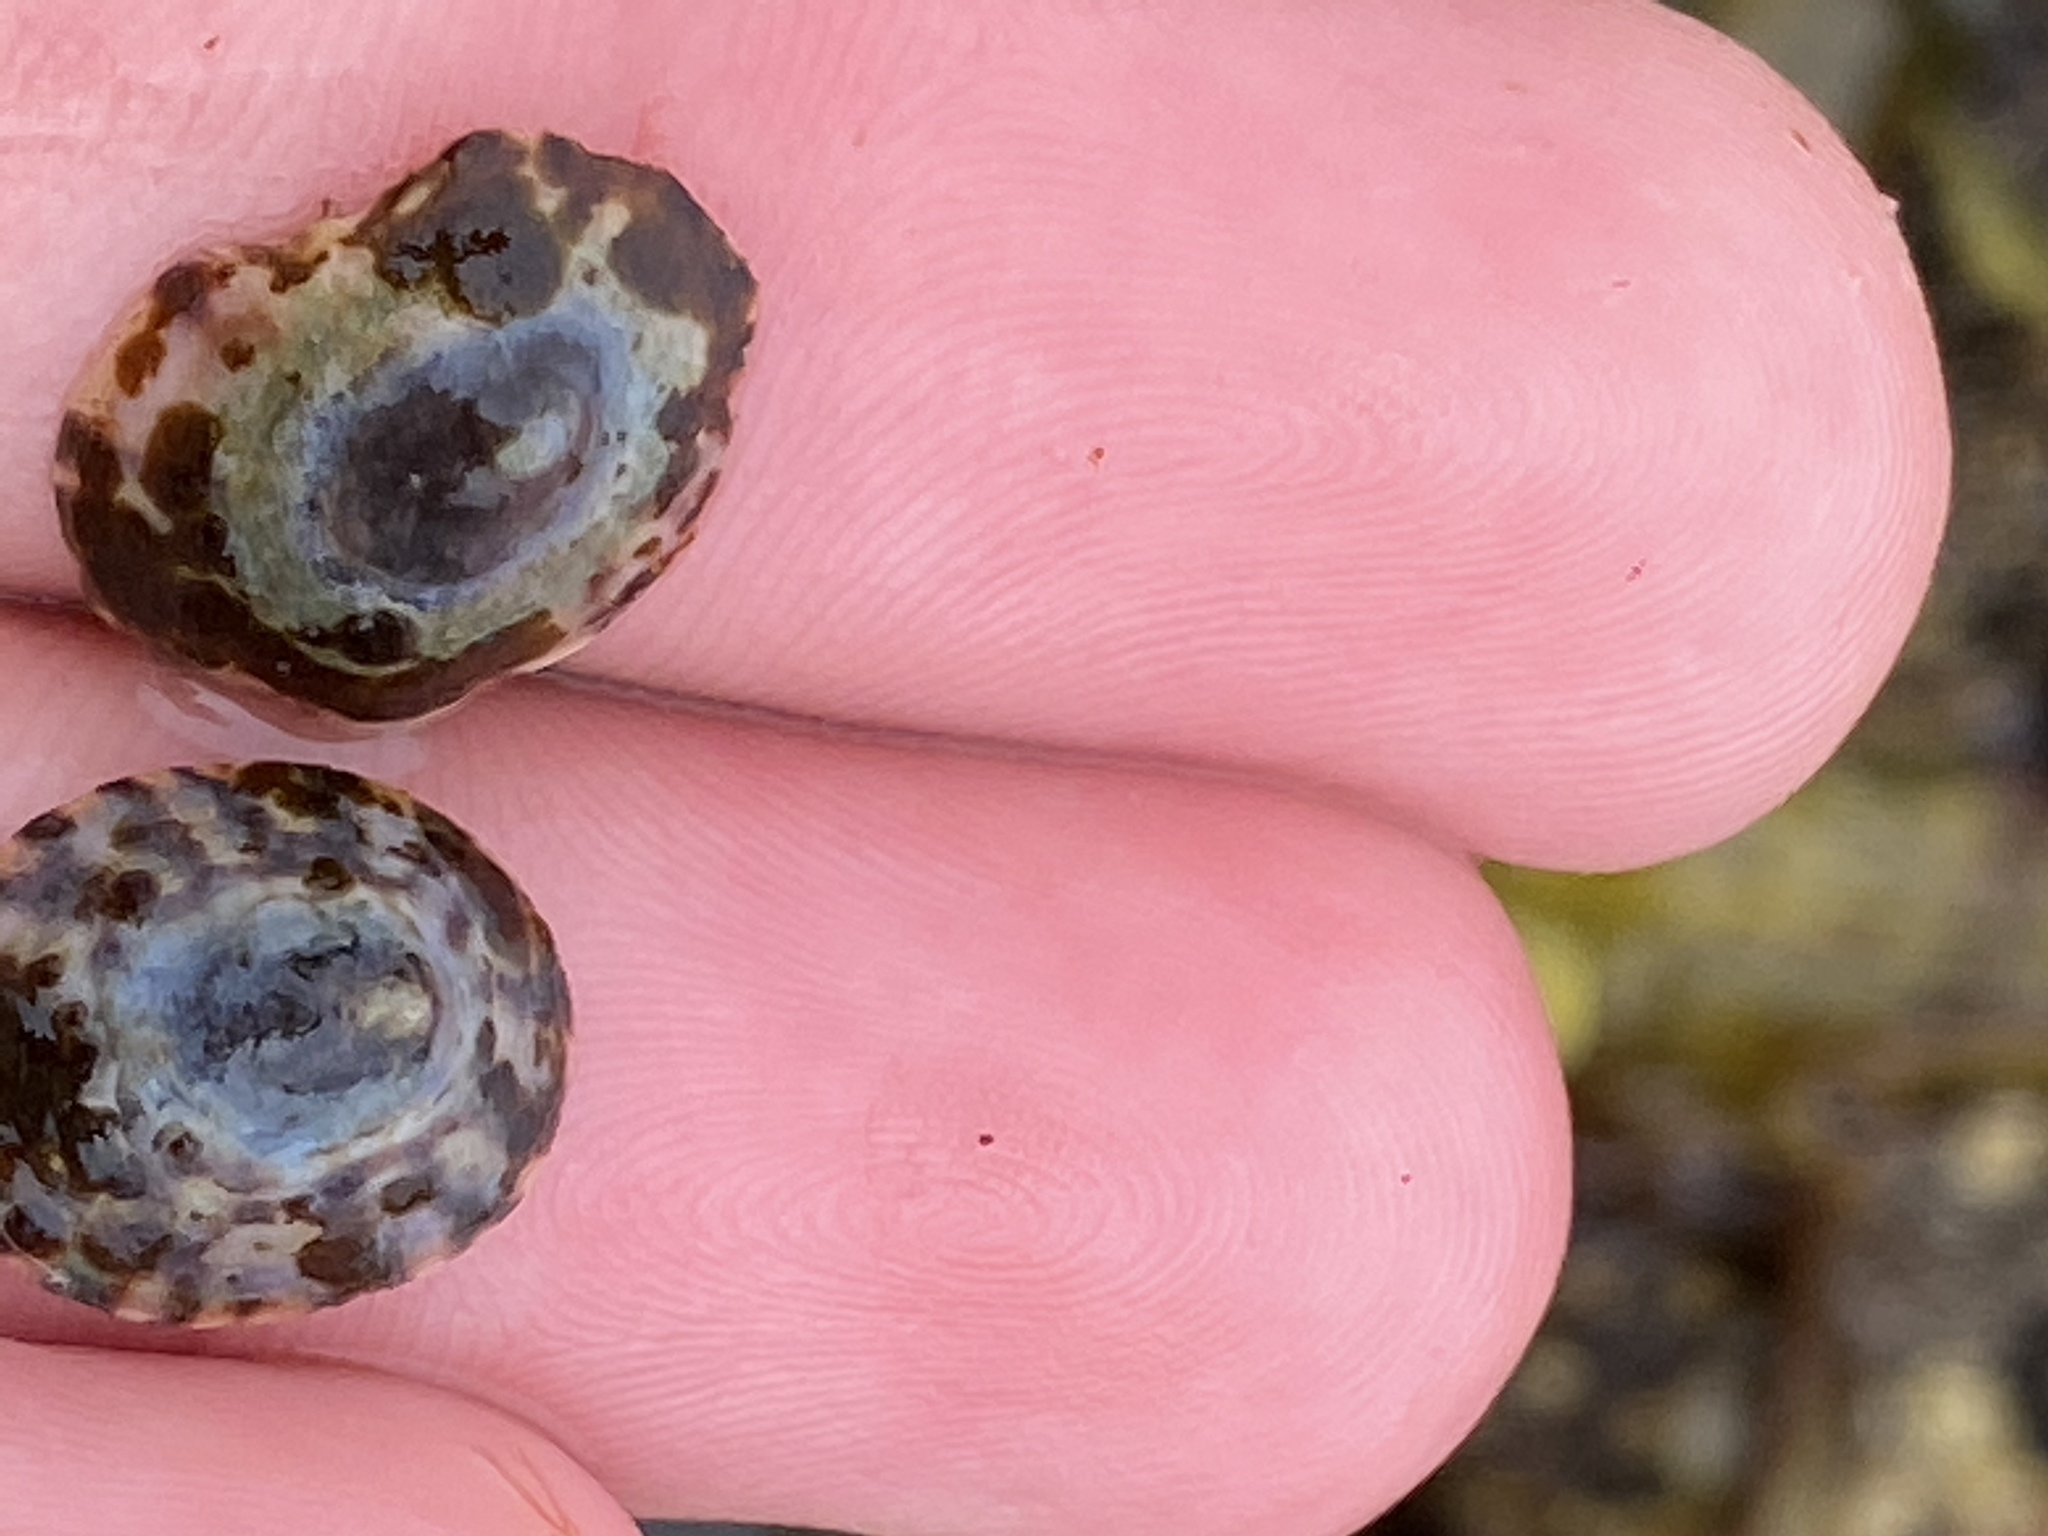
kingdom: Animalia
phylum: Mollusca
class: Gastropoda
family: Lottiidae
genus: Testudinalia
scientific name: Testudinalia testudinalis
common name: Common tortoiseshell limpet
